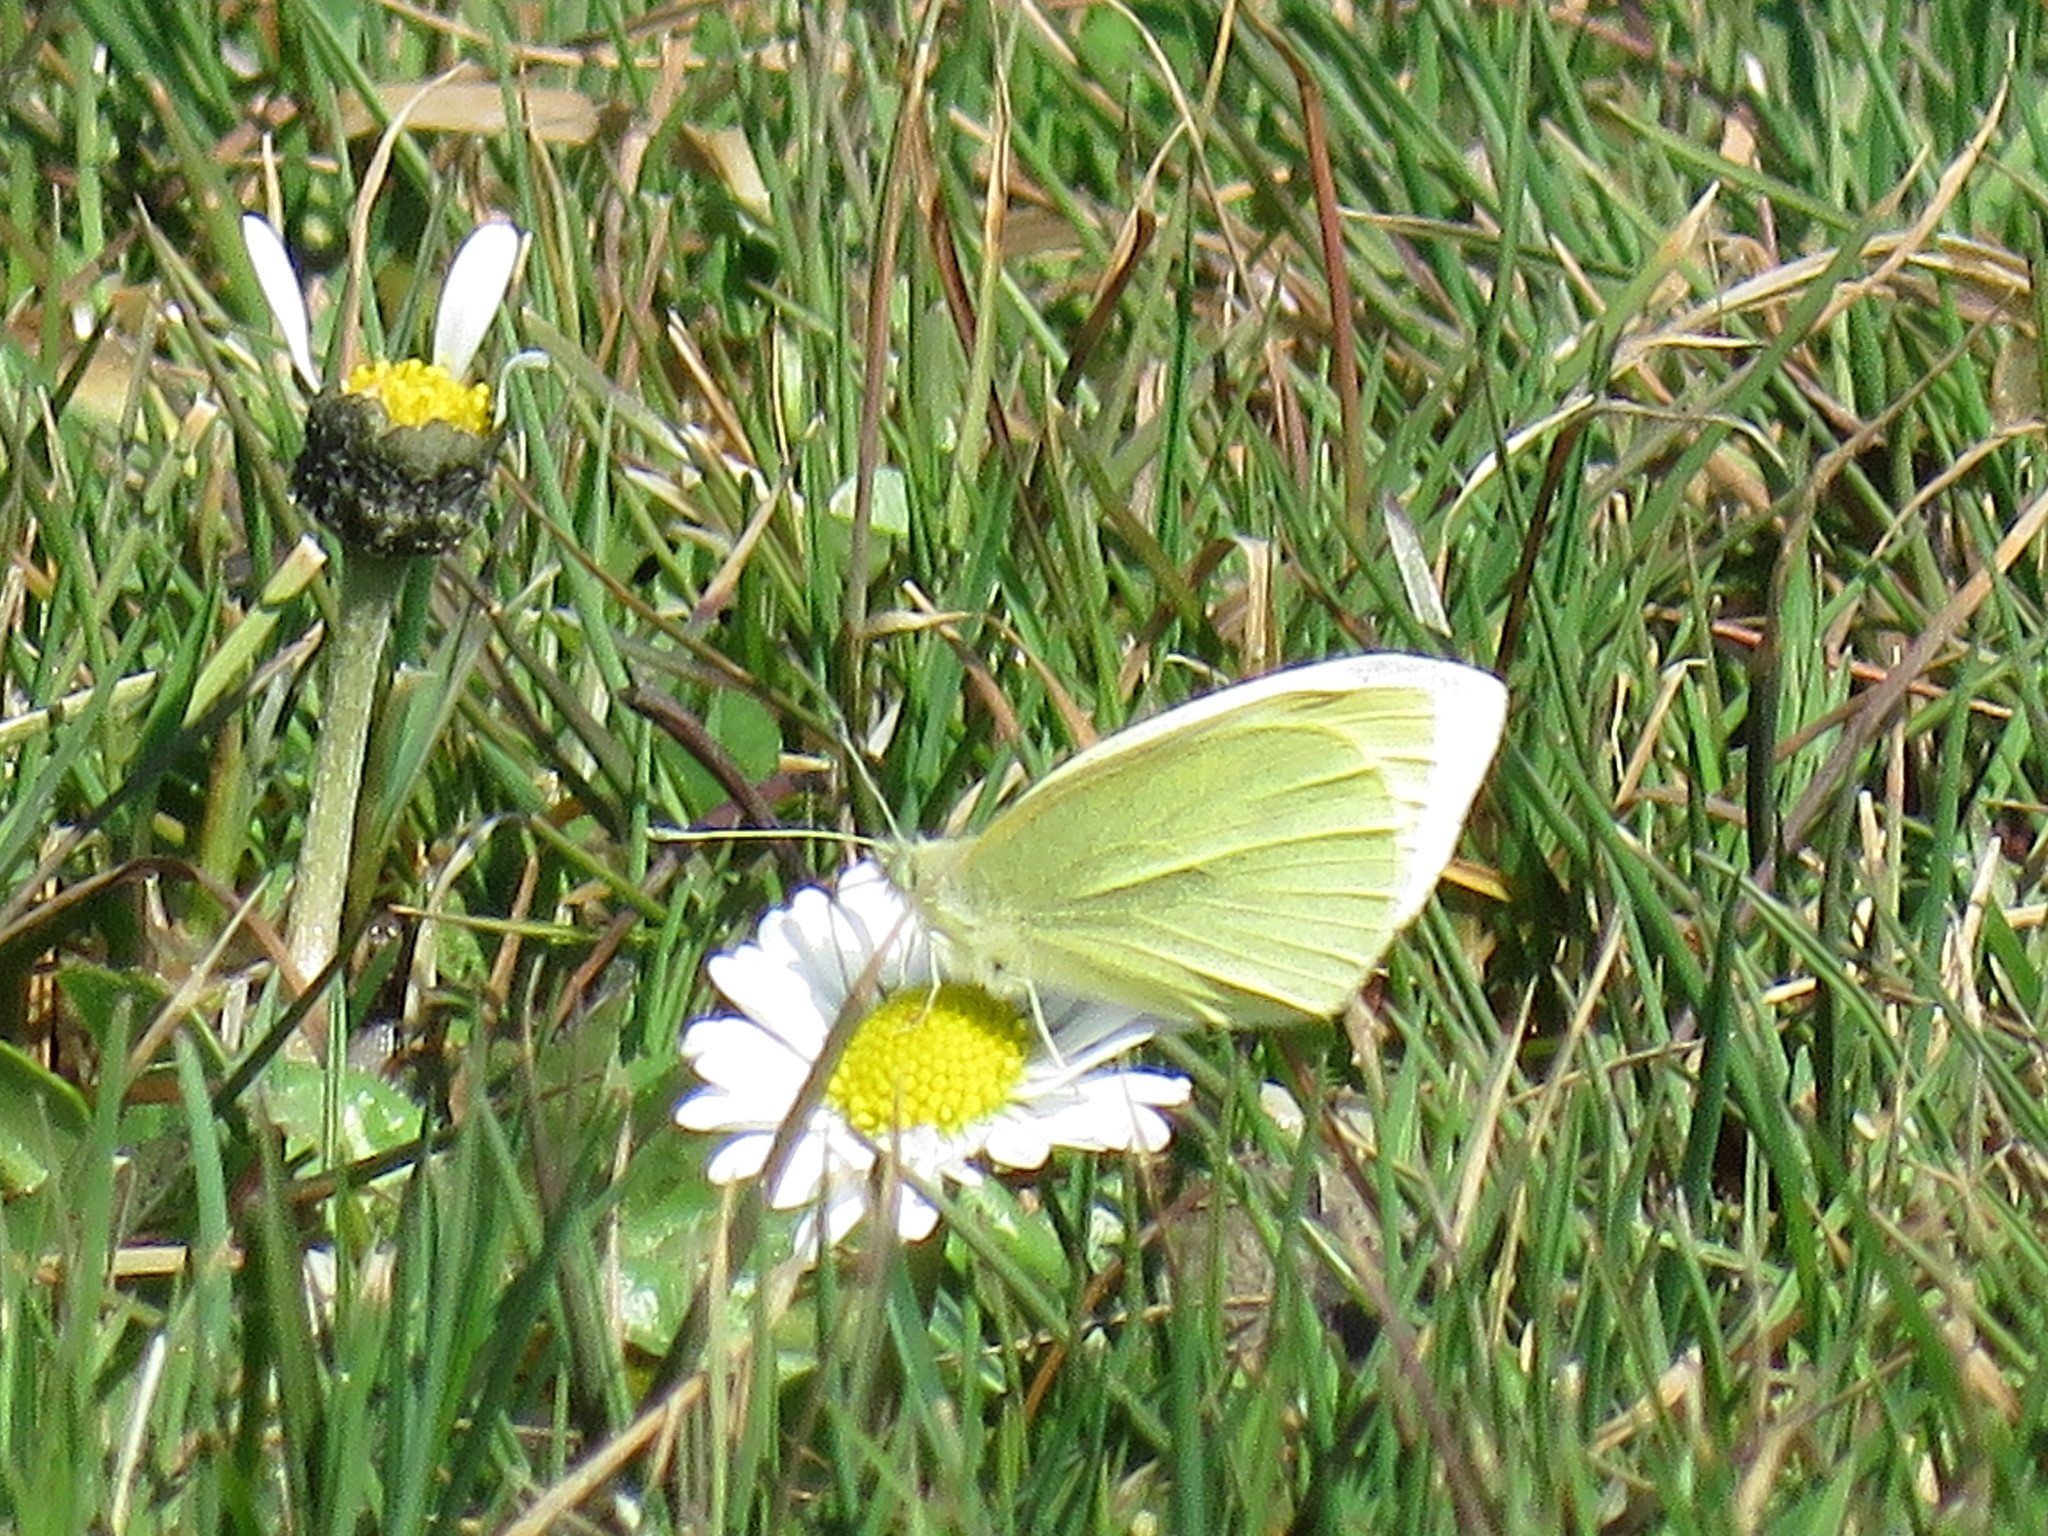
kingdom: Animalia
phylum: Arthropoda
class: Insecta
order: Lepidoptera
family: Pieridae
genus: Pieris
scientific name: Pieris rapae
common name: Small white
